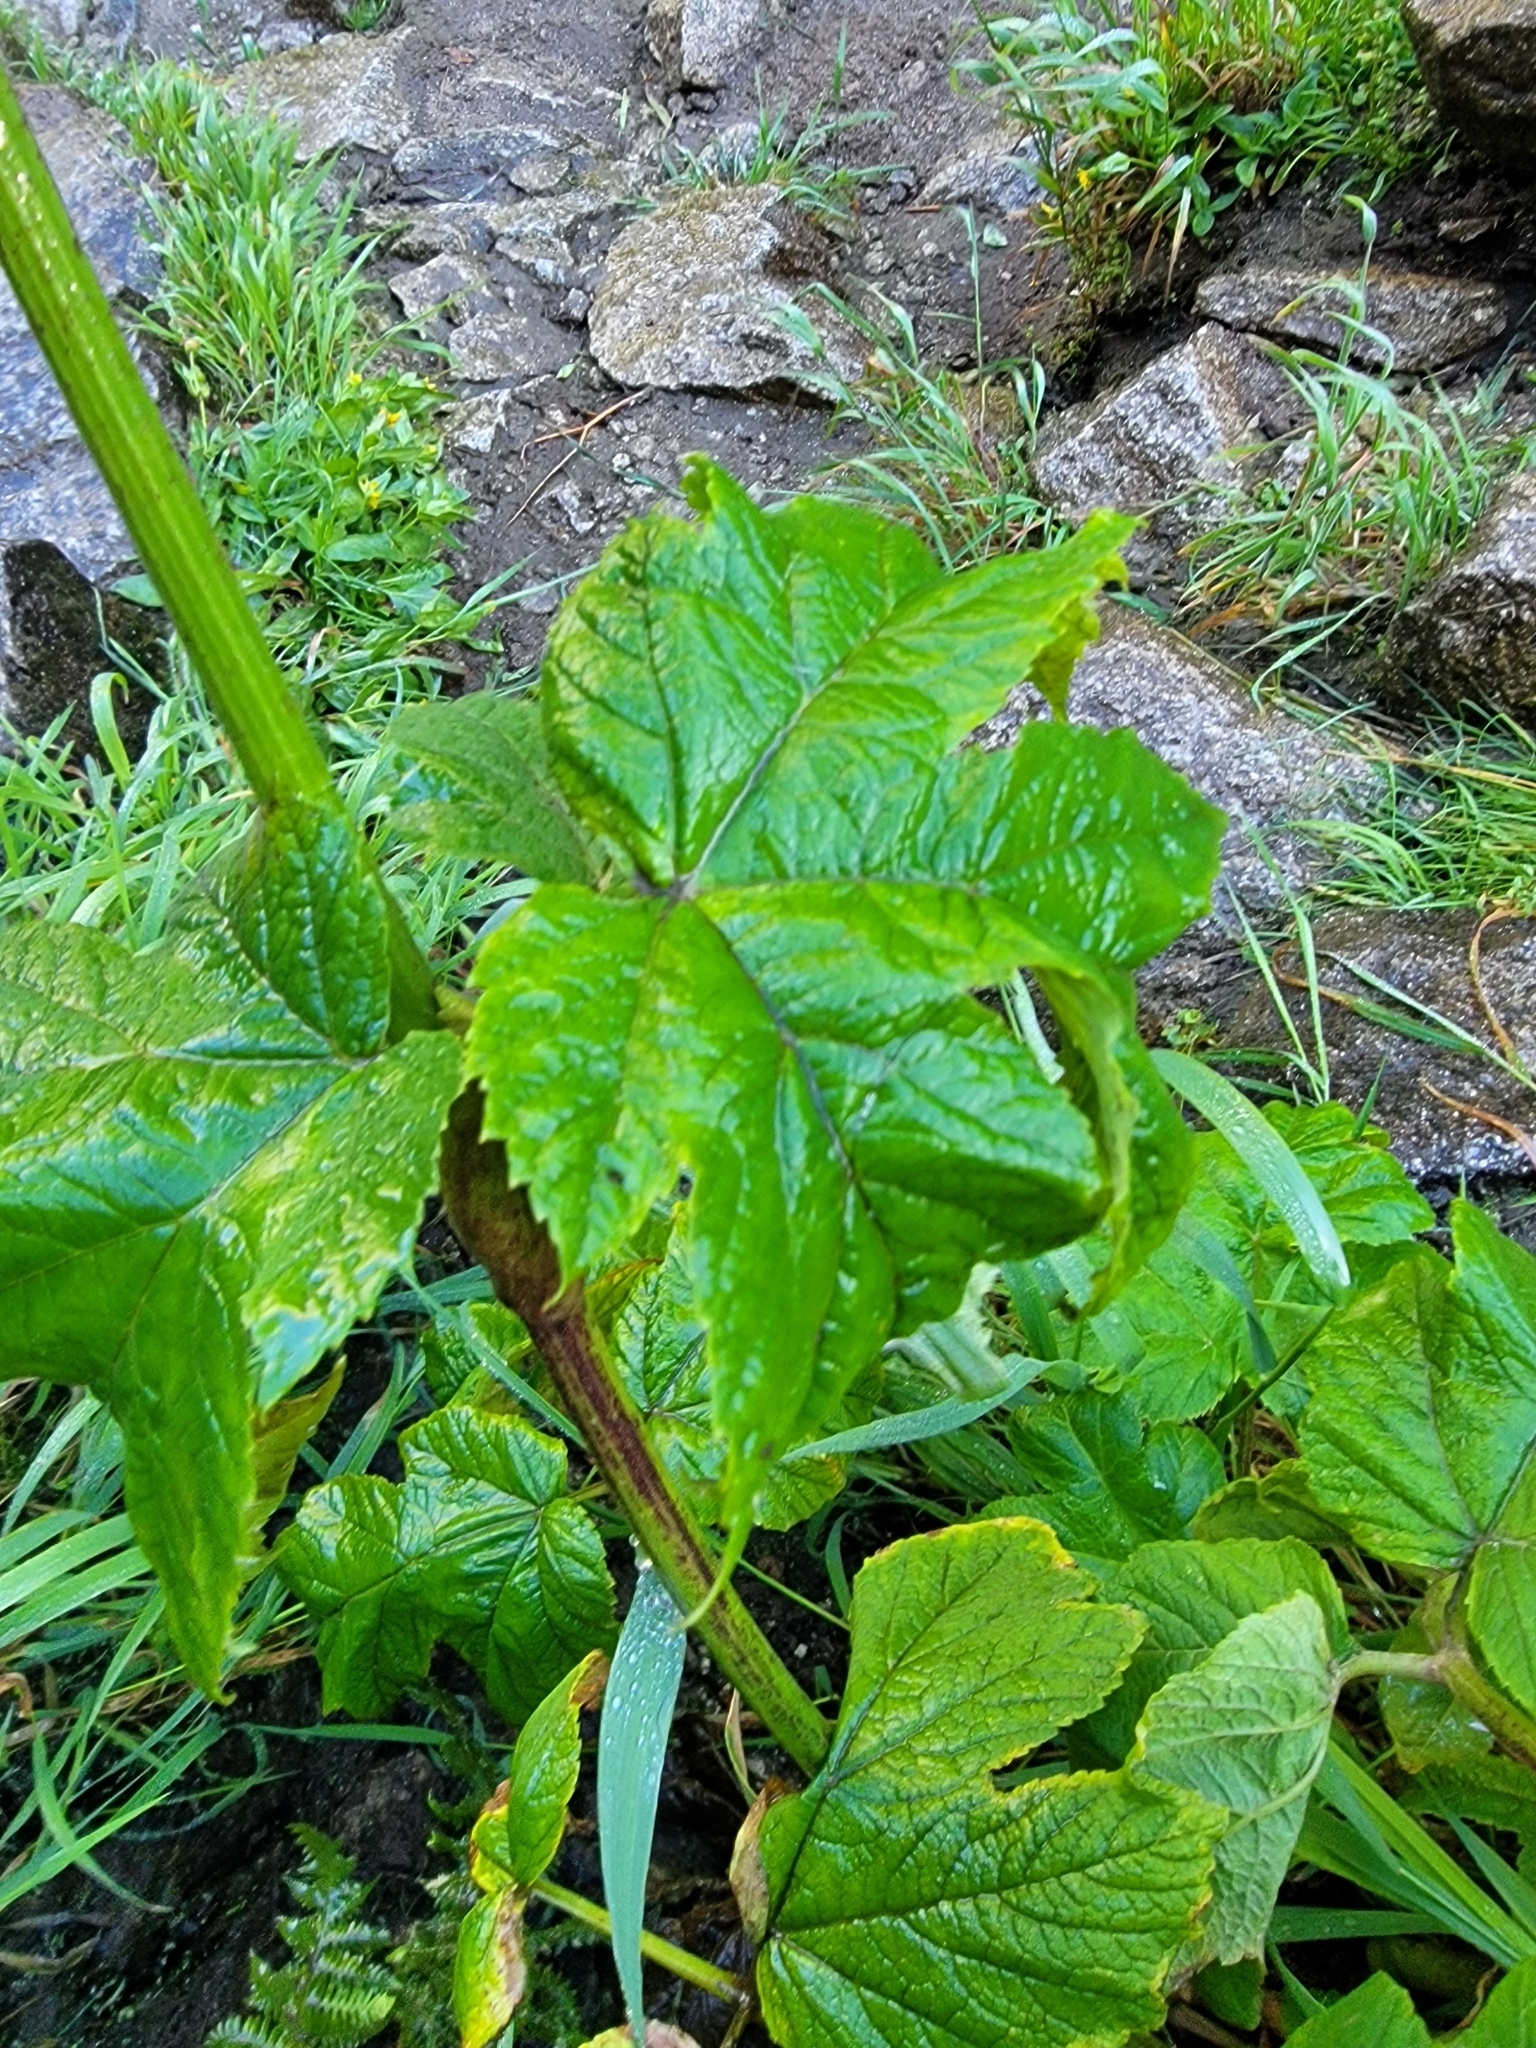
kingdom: Plantae
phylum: Tracheophyta
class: Magnoliopsida
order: Apiales
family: Apiaceae
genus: Heracleum
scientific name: Heracleum maximum
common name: American cow parsnip
